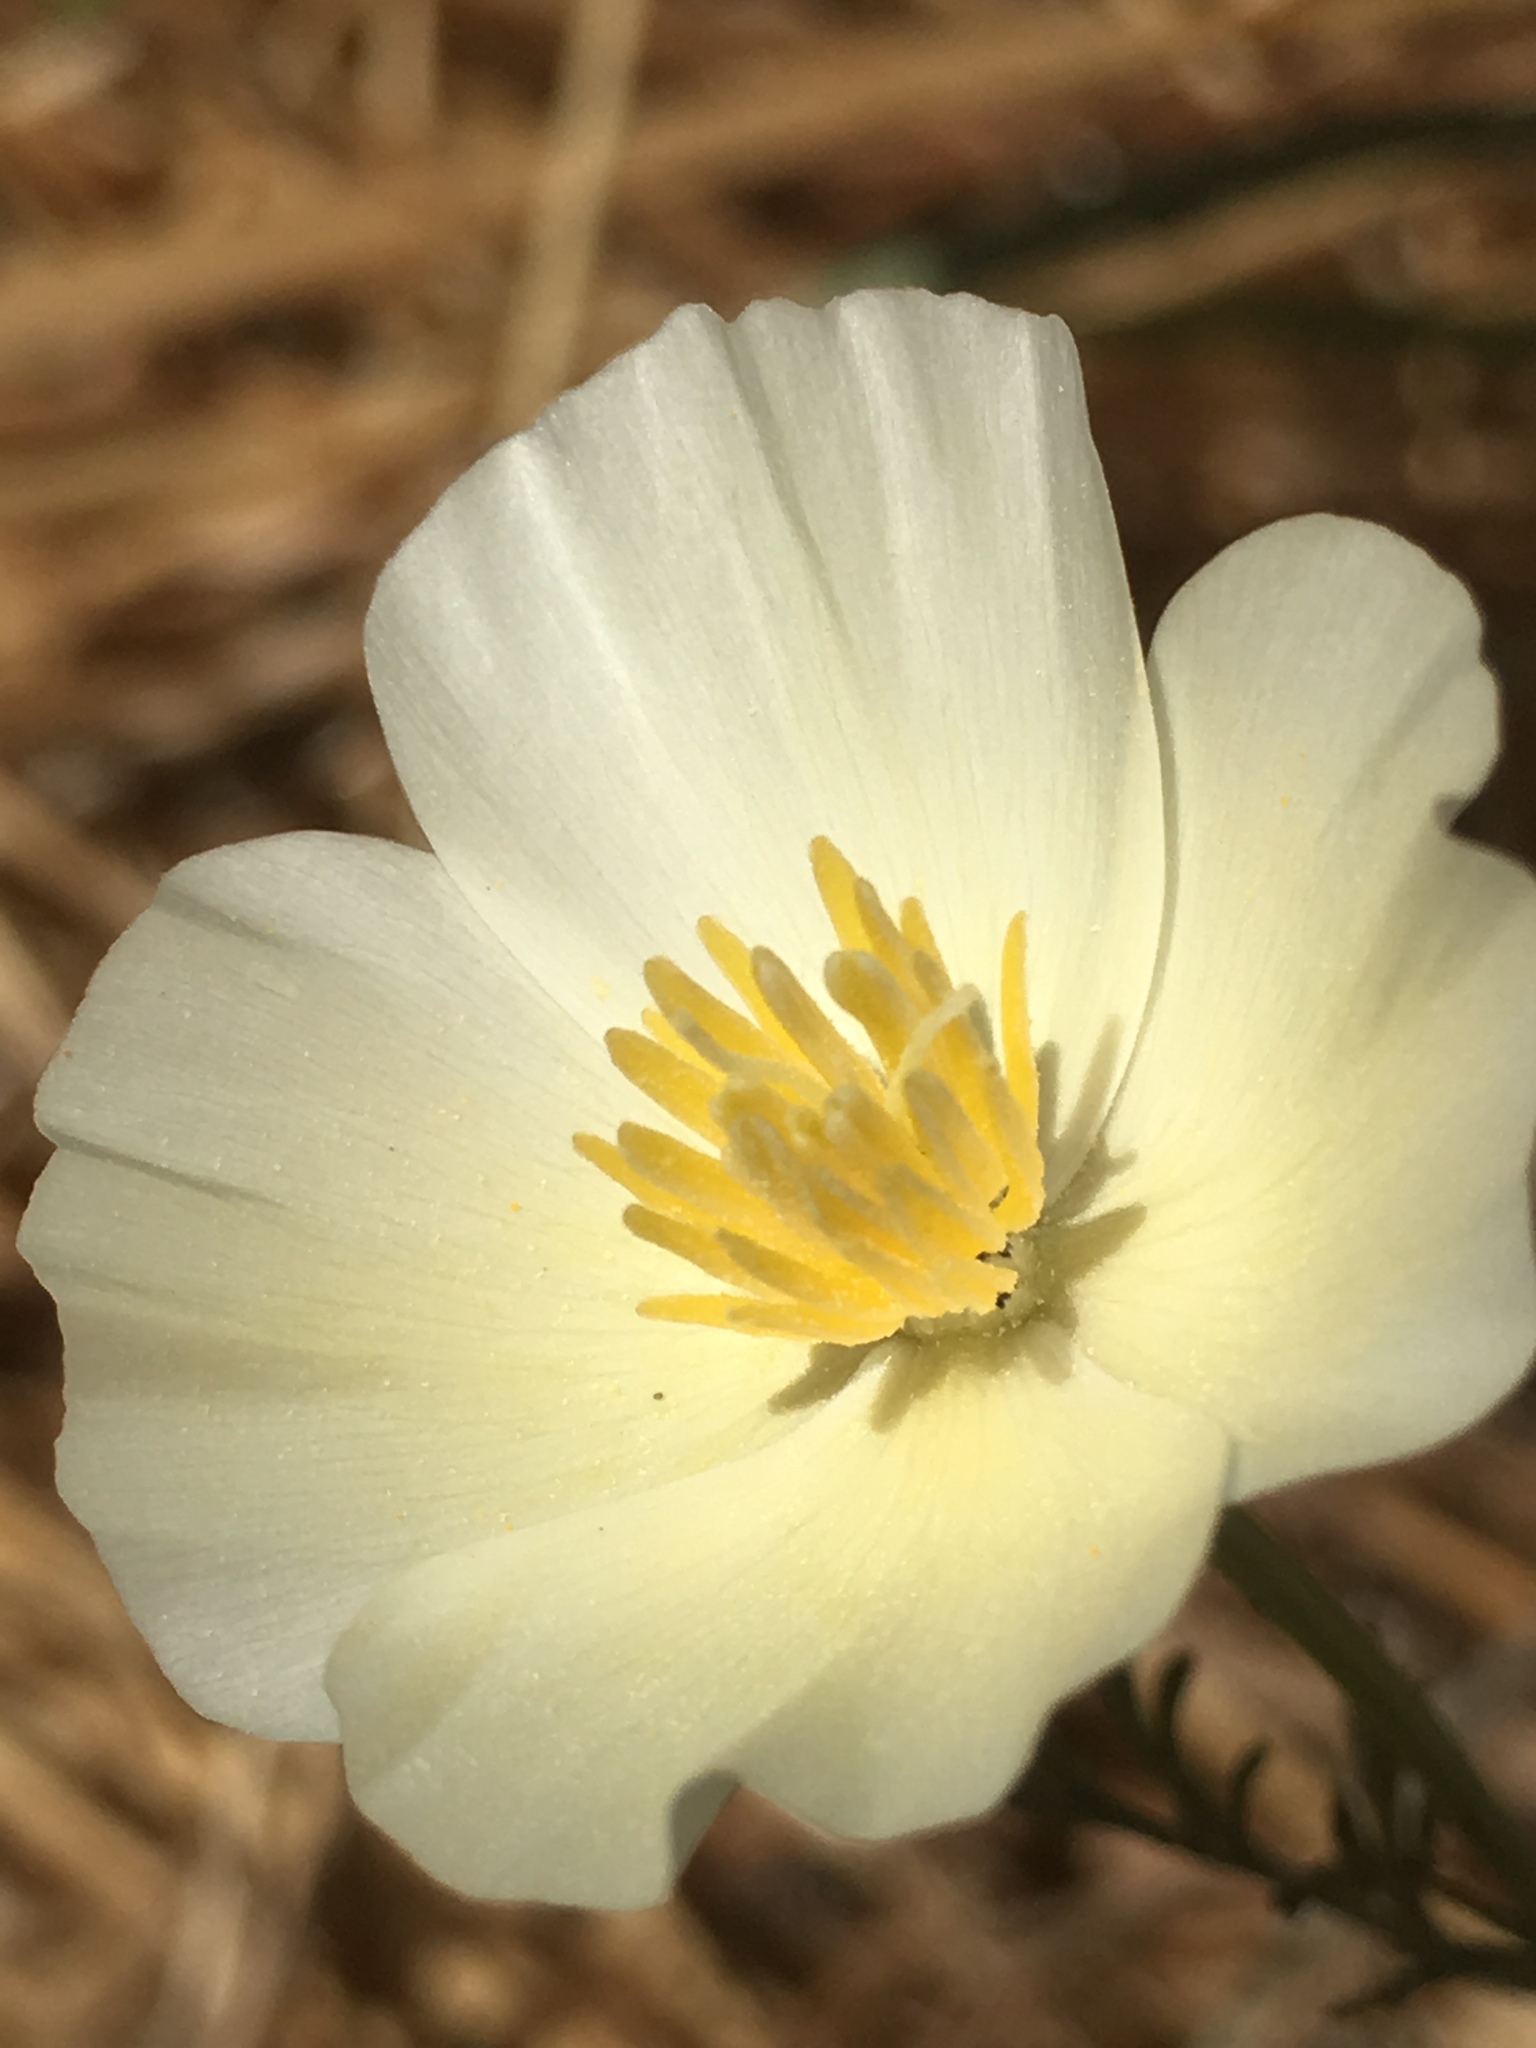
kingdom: Plantae
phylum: Tracheophyta
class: Magnoliopsida
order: Ranunculales
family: Papaveraceae
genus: Eschscholzia
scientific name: Eschscholzia californica
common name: California poppy
